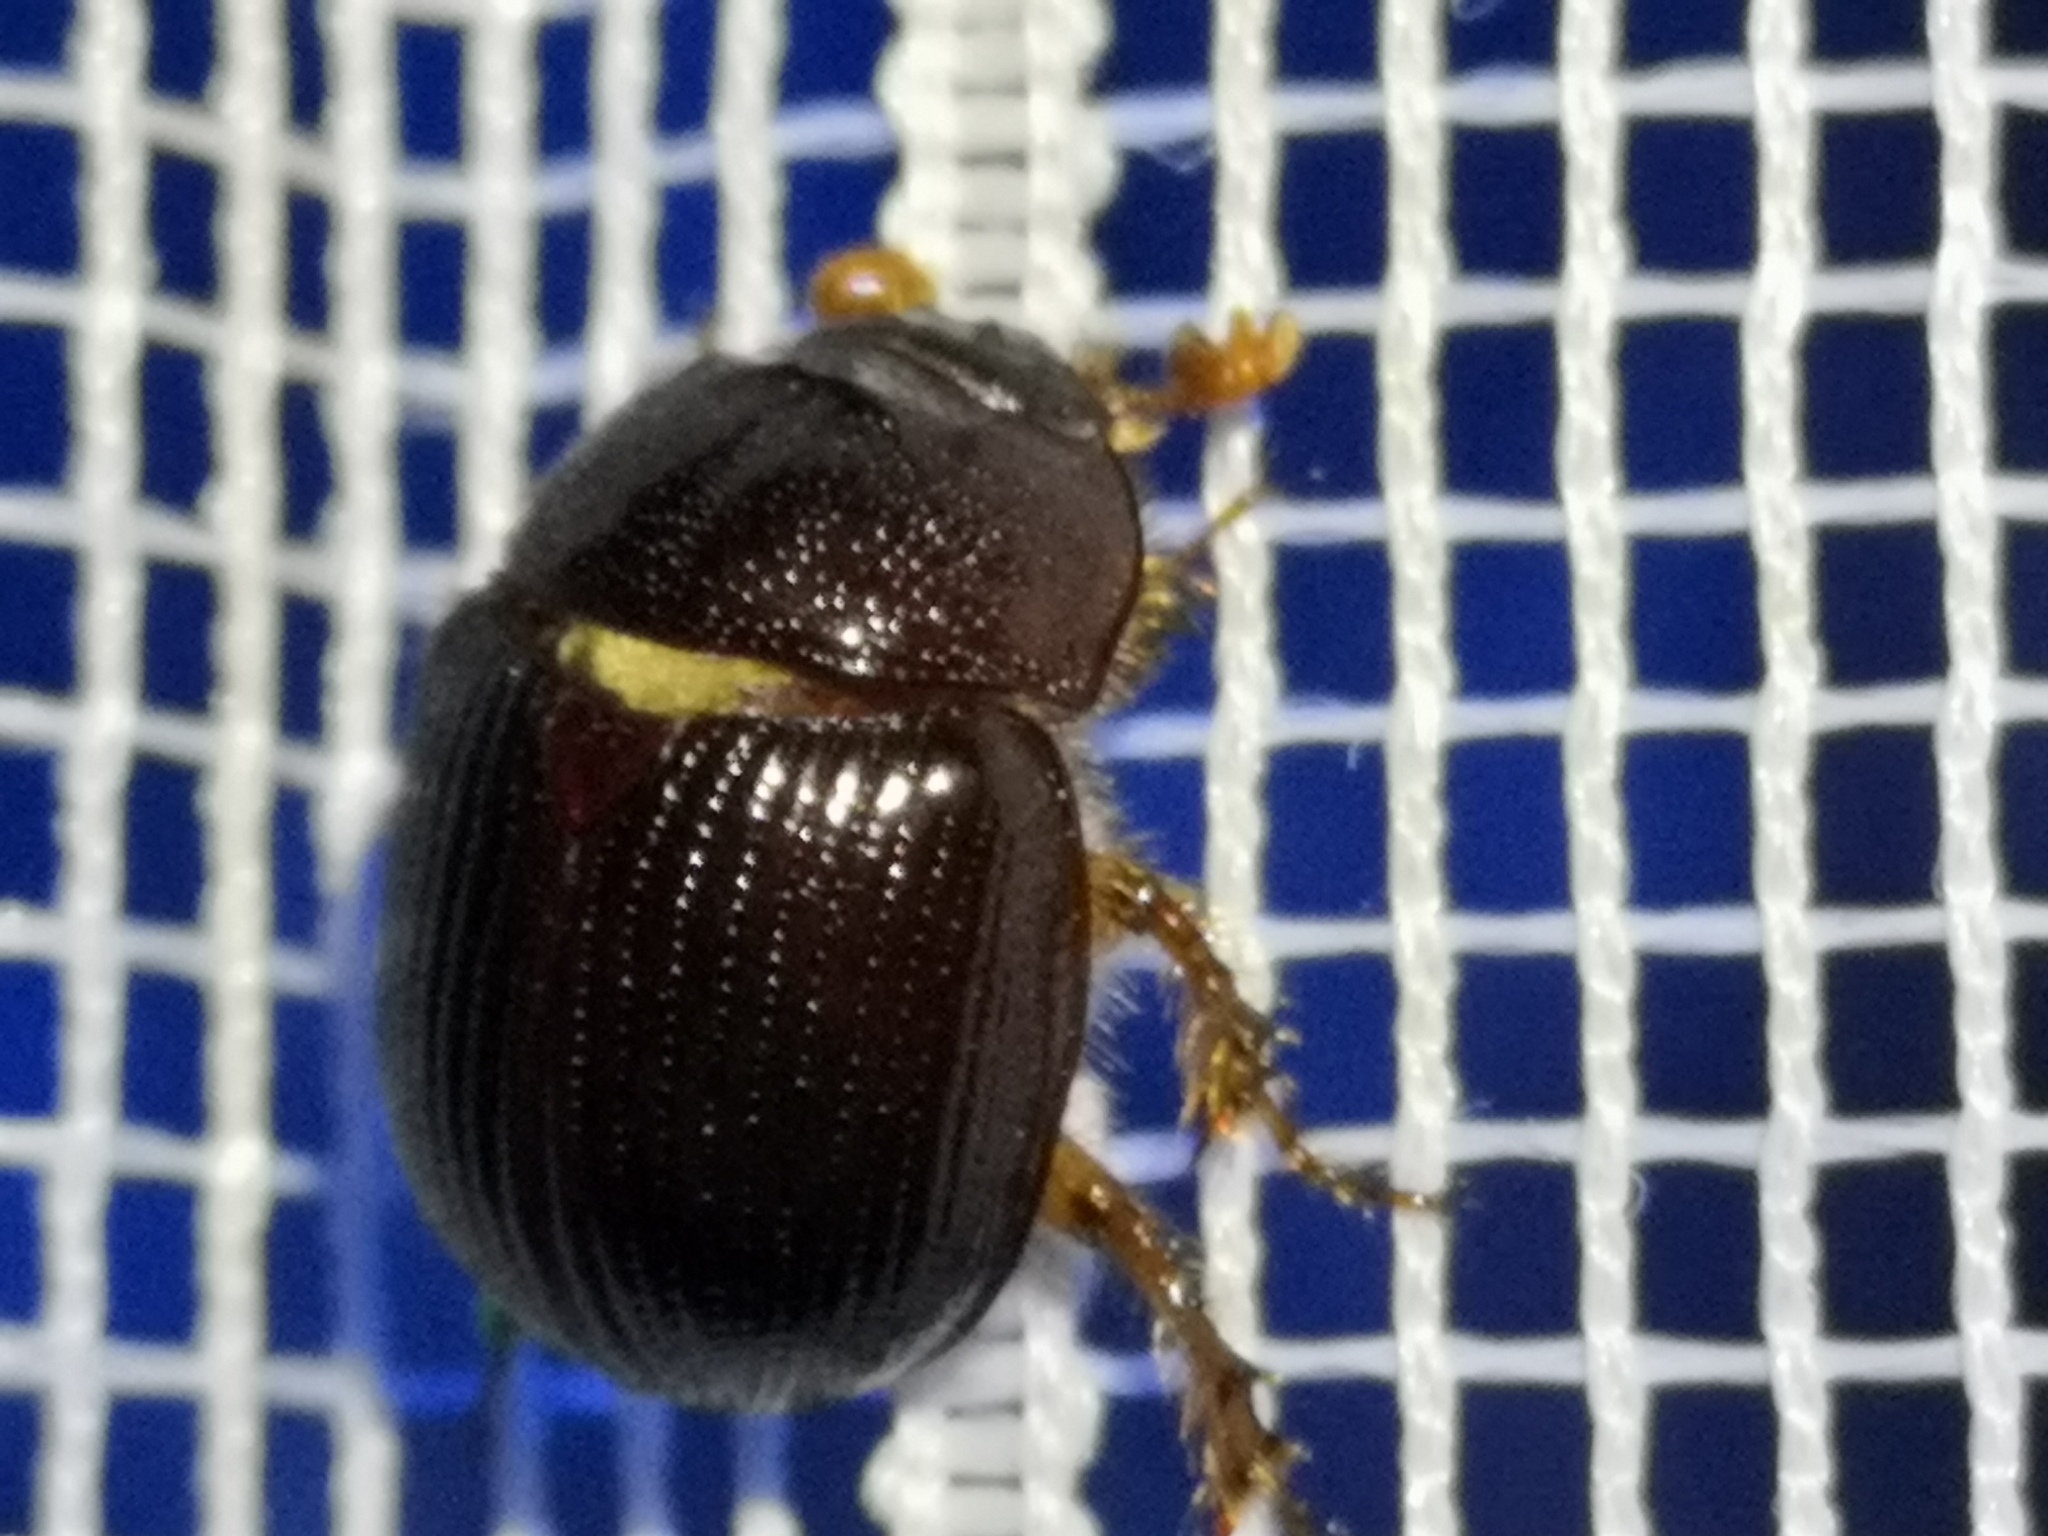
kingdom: Animalia
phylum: Arthropoda
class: Insecta
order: Coleoptera
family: Geotrupidae
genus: Odonteus
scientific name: Odonteus armiger
